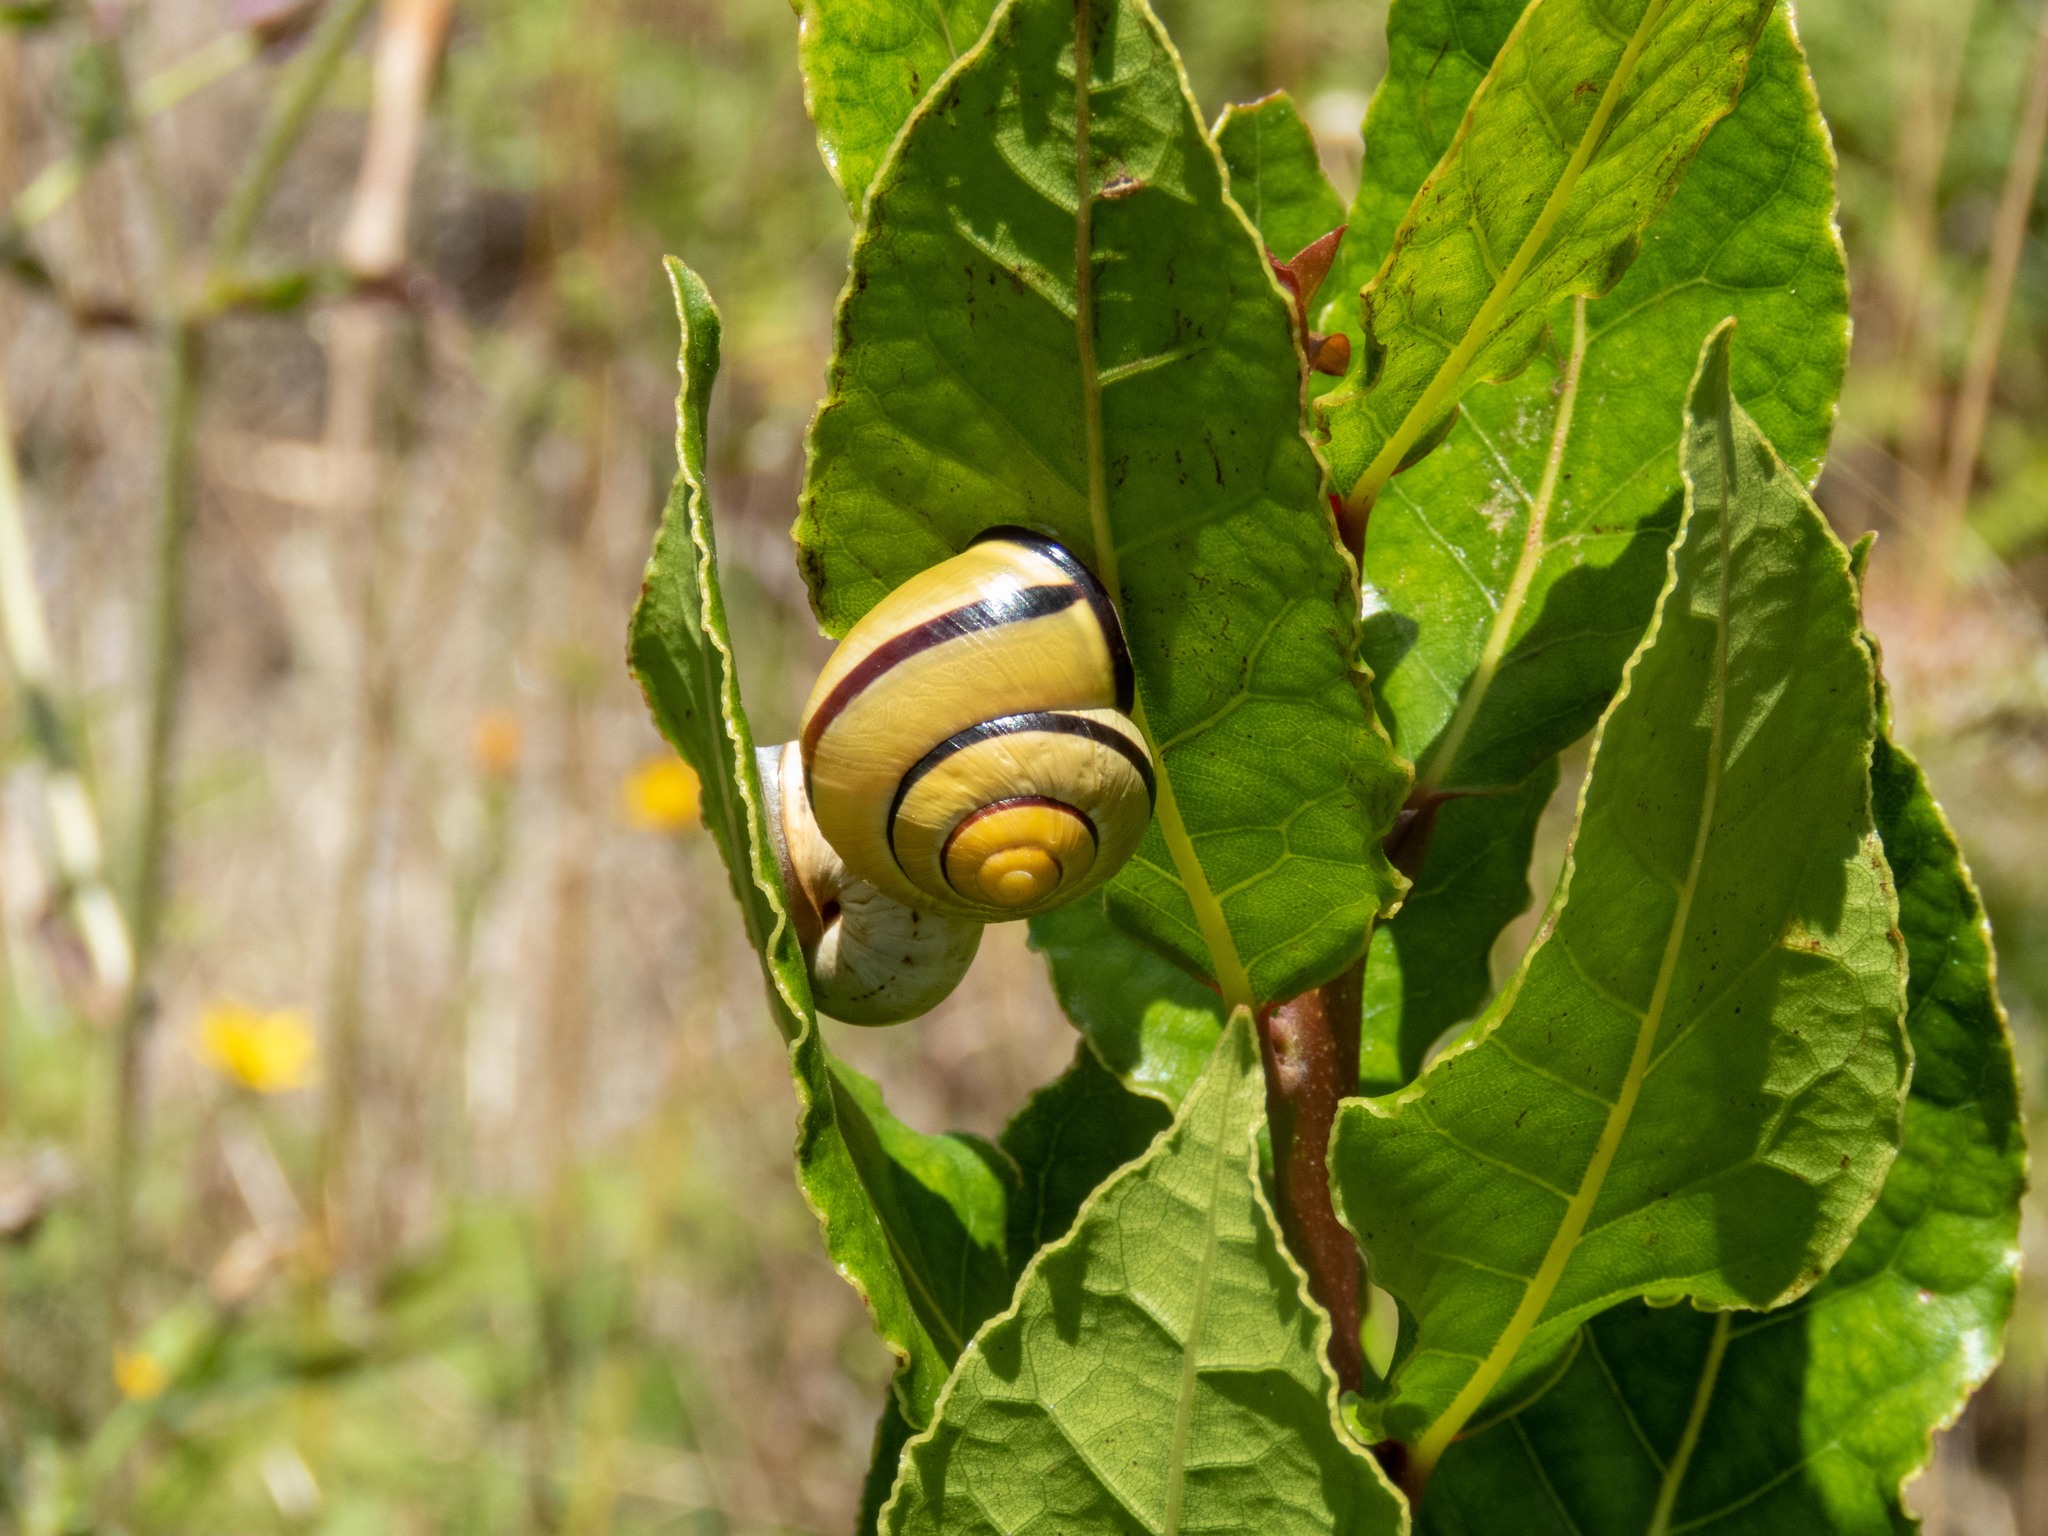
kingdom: Animalia
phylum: Mollusca
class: Gastropoda
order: Stylommatophora
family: Helicidae
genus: Cepaea
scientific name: Cepaea nemoralis
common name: Grovesnail
